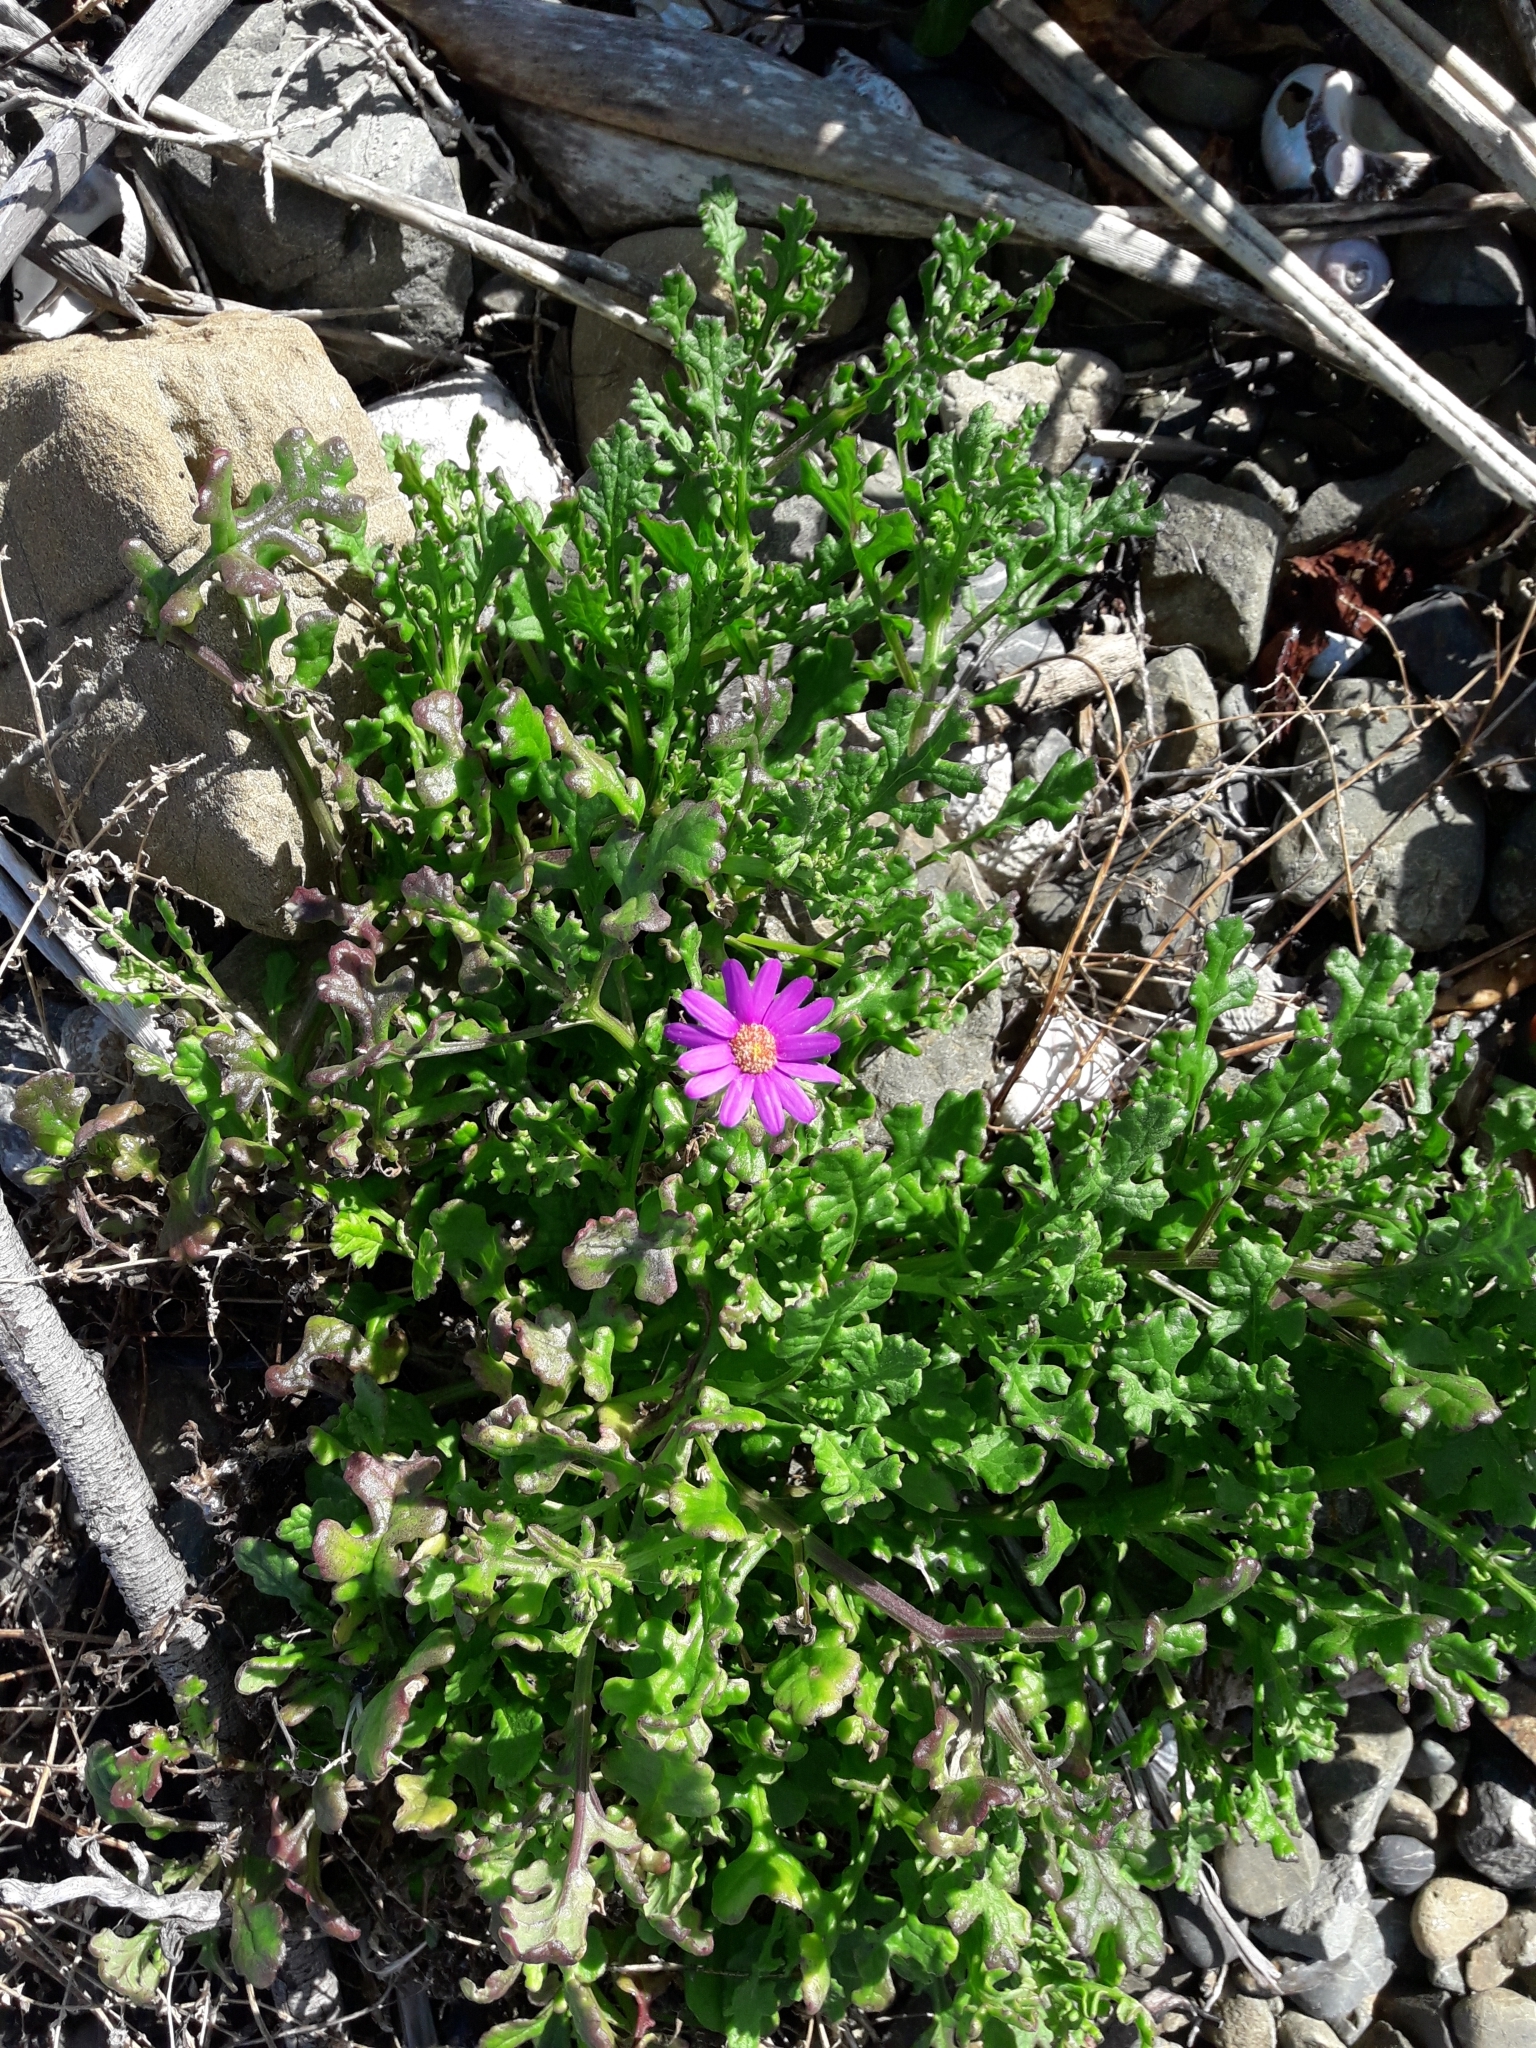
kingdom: Plantae
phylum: Tracheophyta
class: Magnoliopsida
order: Asterales
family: Asteraceae
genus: Senecio
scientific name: Senecio elegans
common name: Purple groundsel
